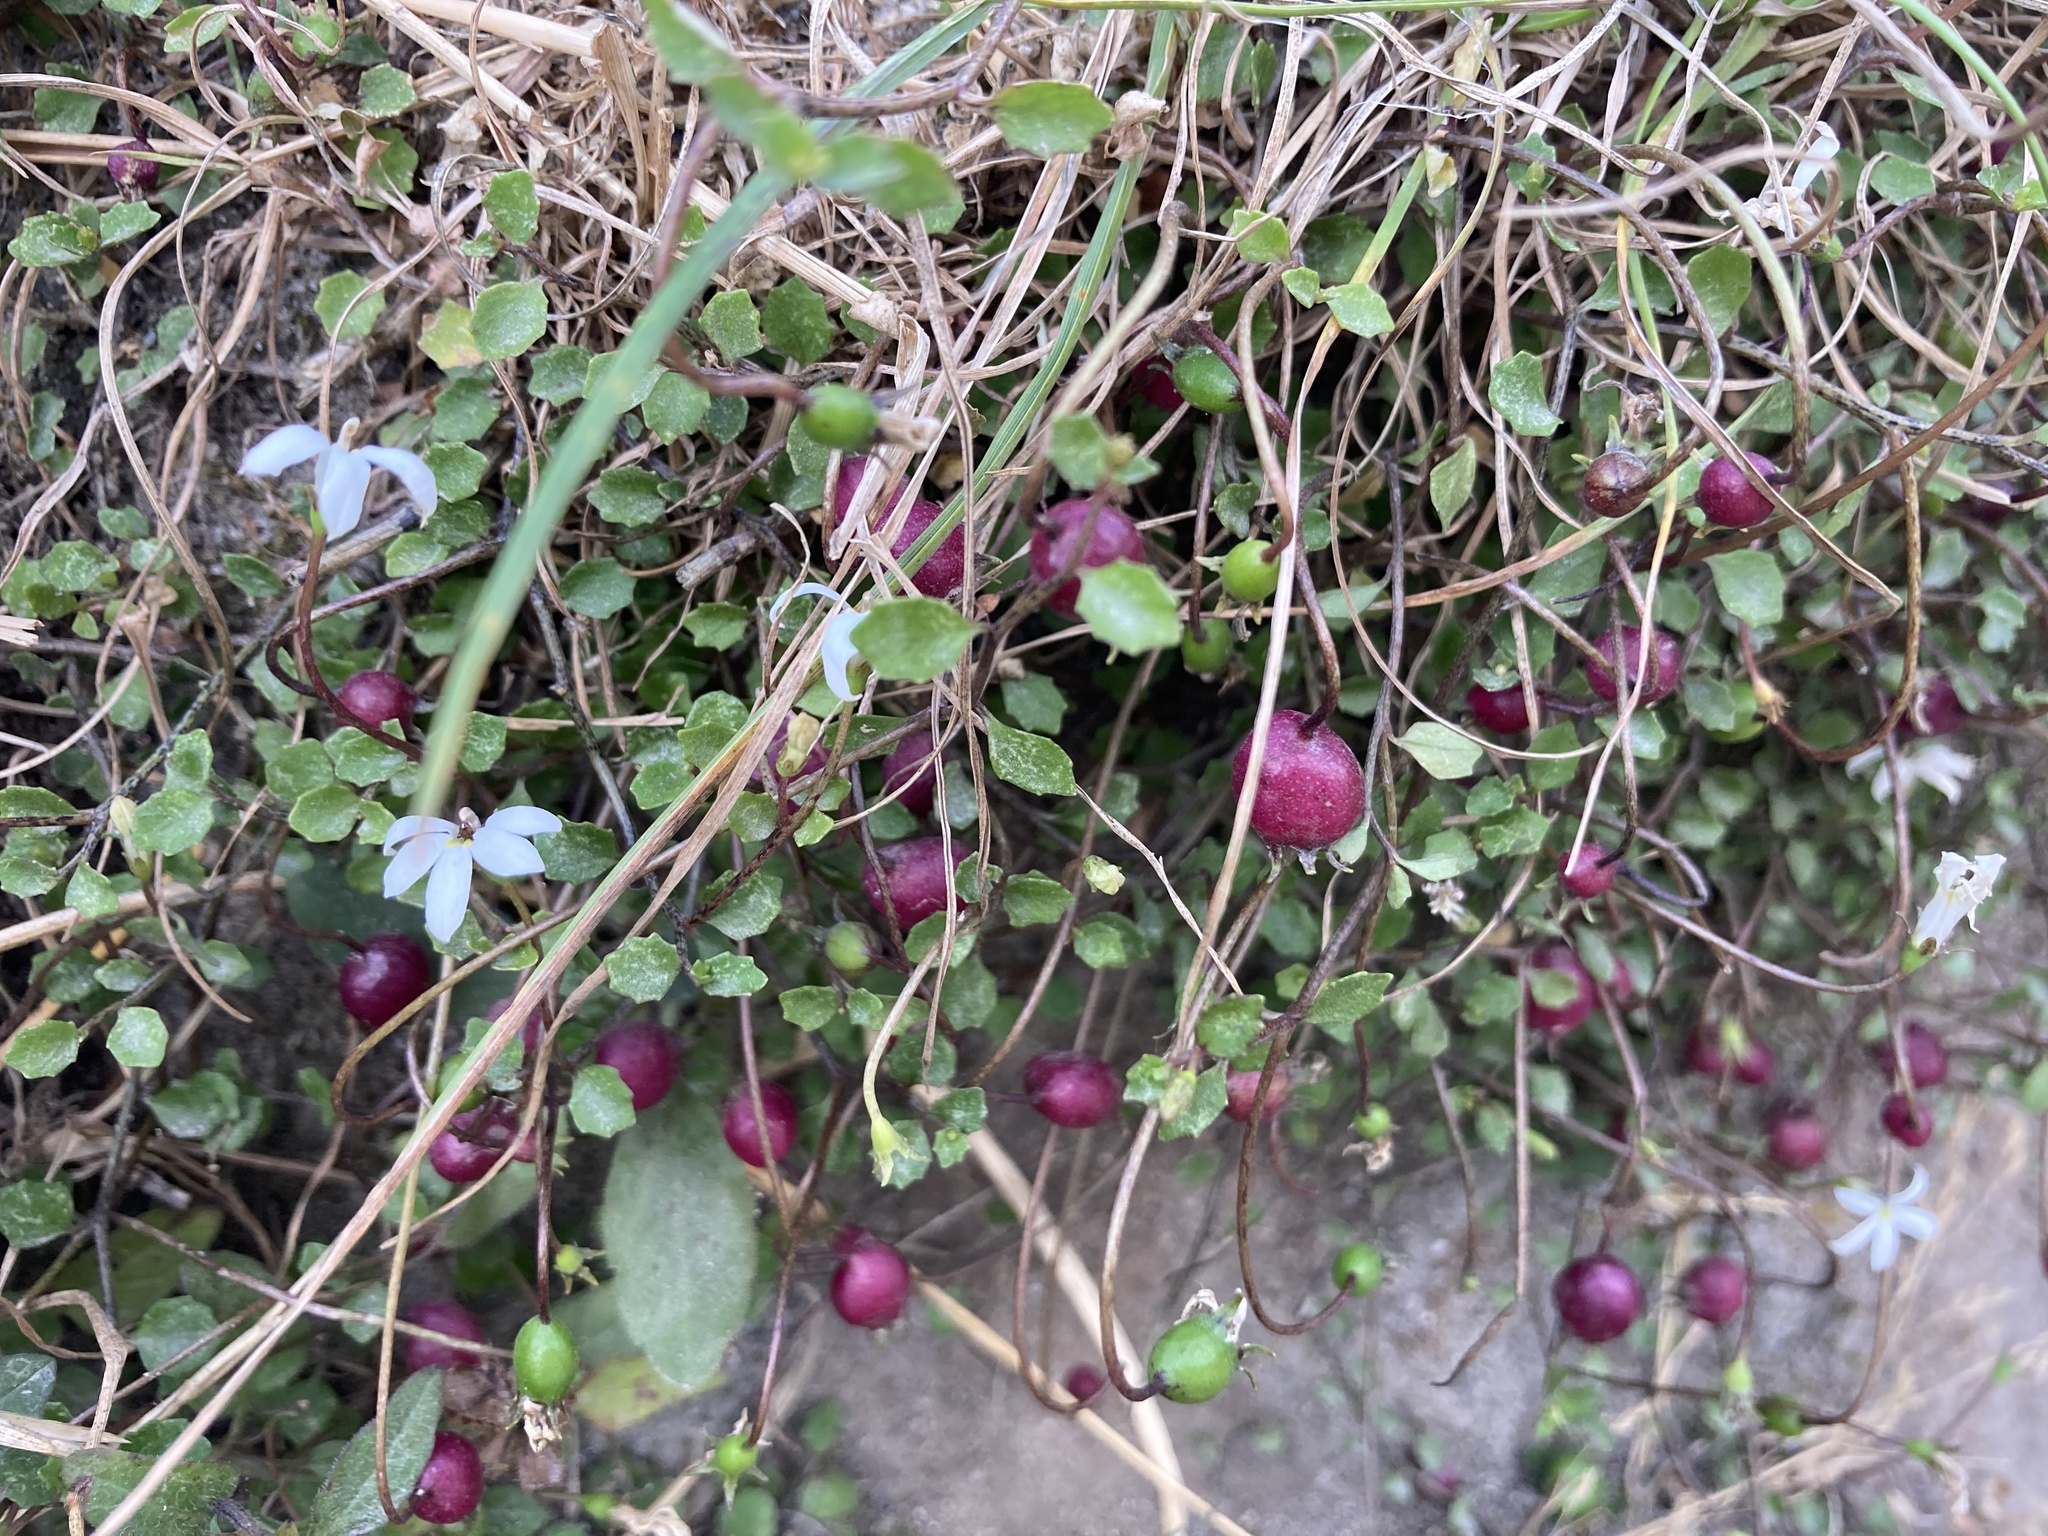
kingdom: Plantae
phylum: Tracheophyta
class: Magnoliopsida
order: Asterales
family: Campanulaceae
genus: Lobelia
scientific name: Lobelia angulata
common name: Lawn lobelia
